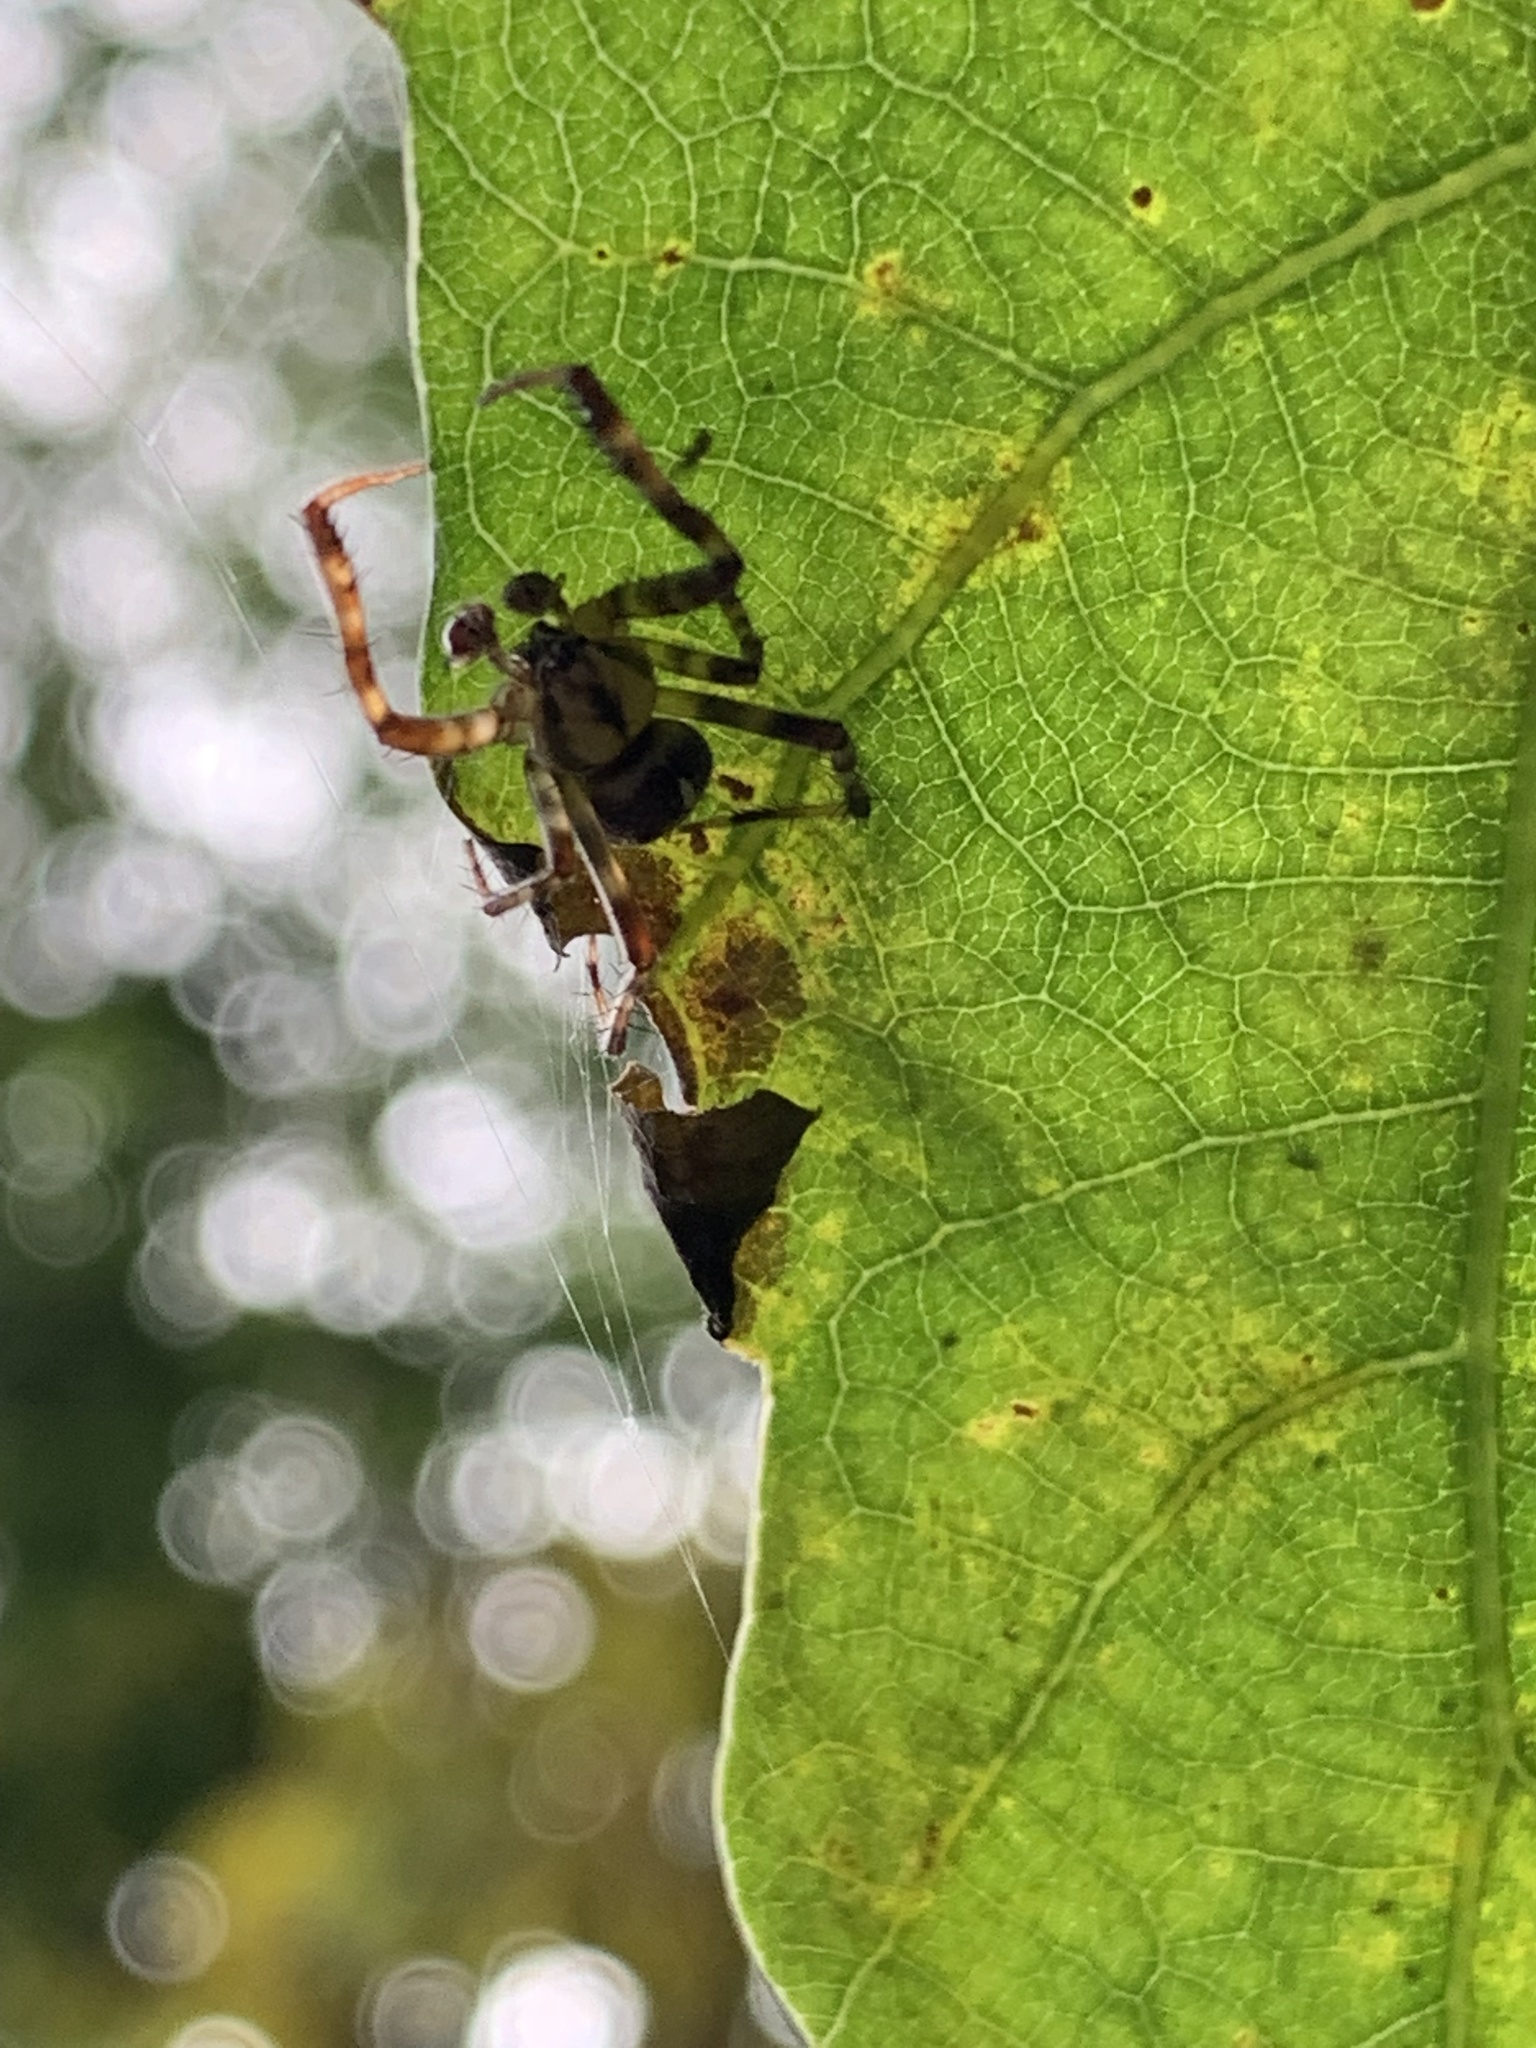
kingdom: Animalia
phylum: Arthropoda
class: Arachnida
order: Araneae
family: Araneidae
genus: Araneus
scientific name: Araneus diadematus
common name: Cross orbweaver
